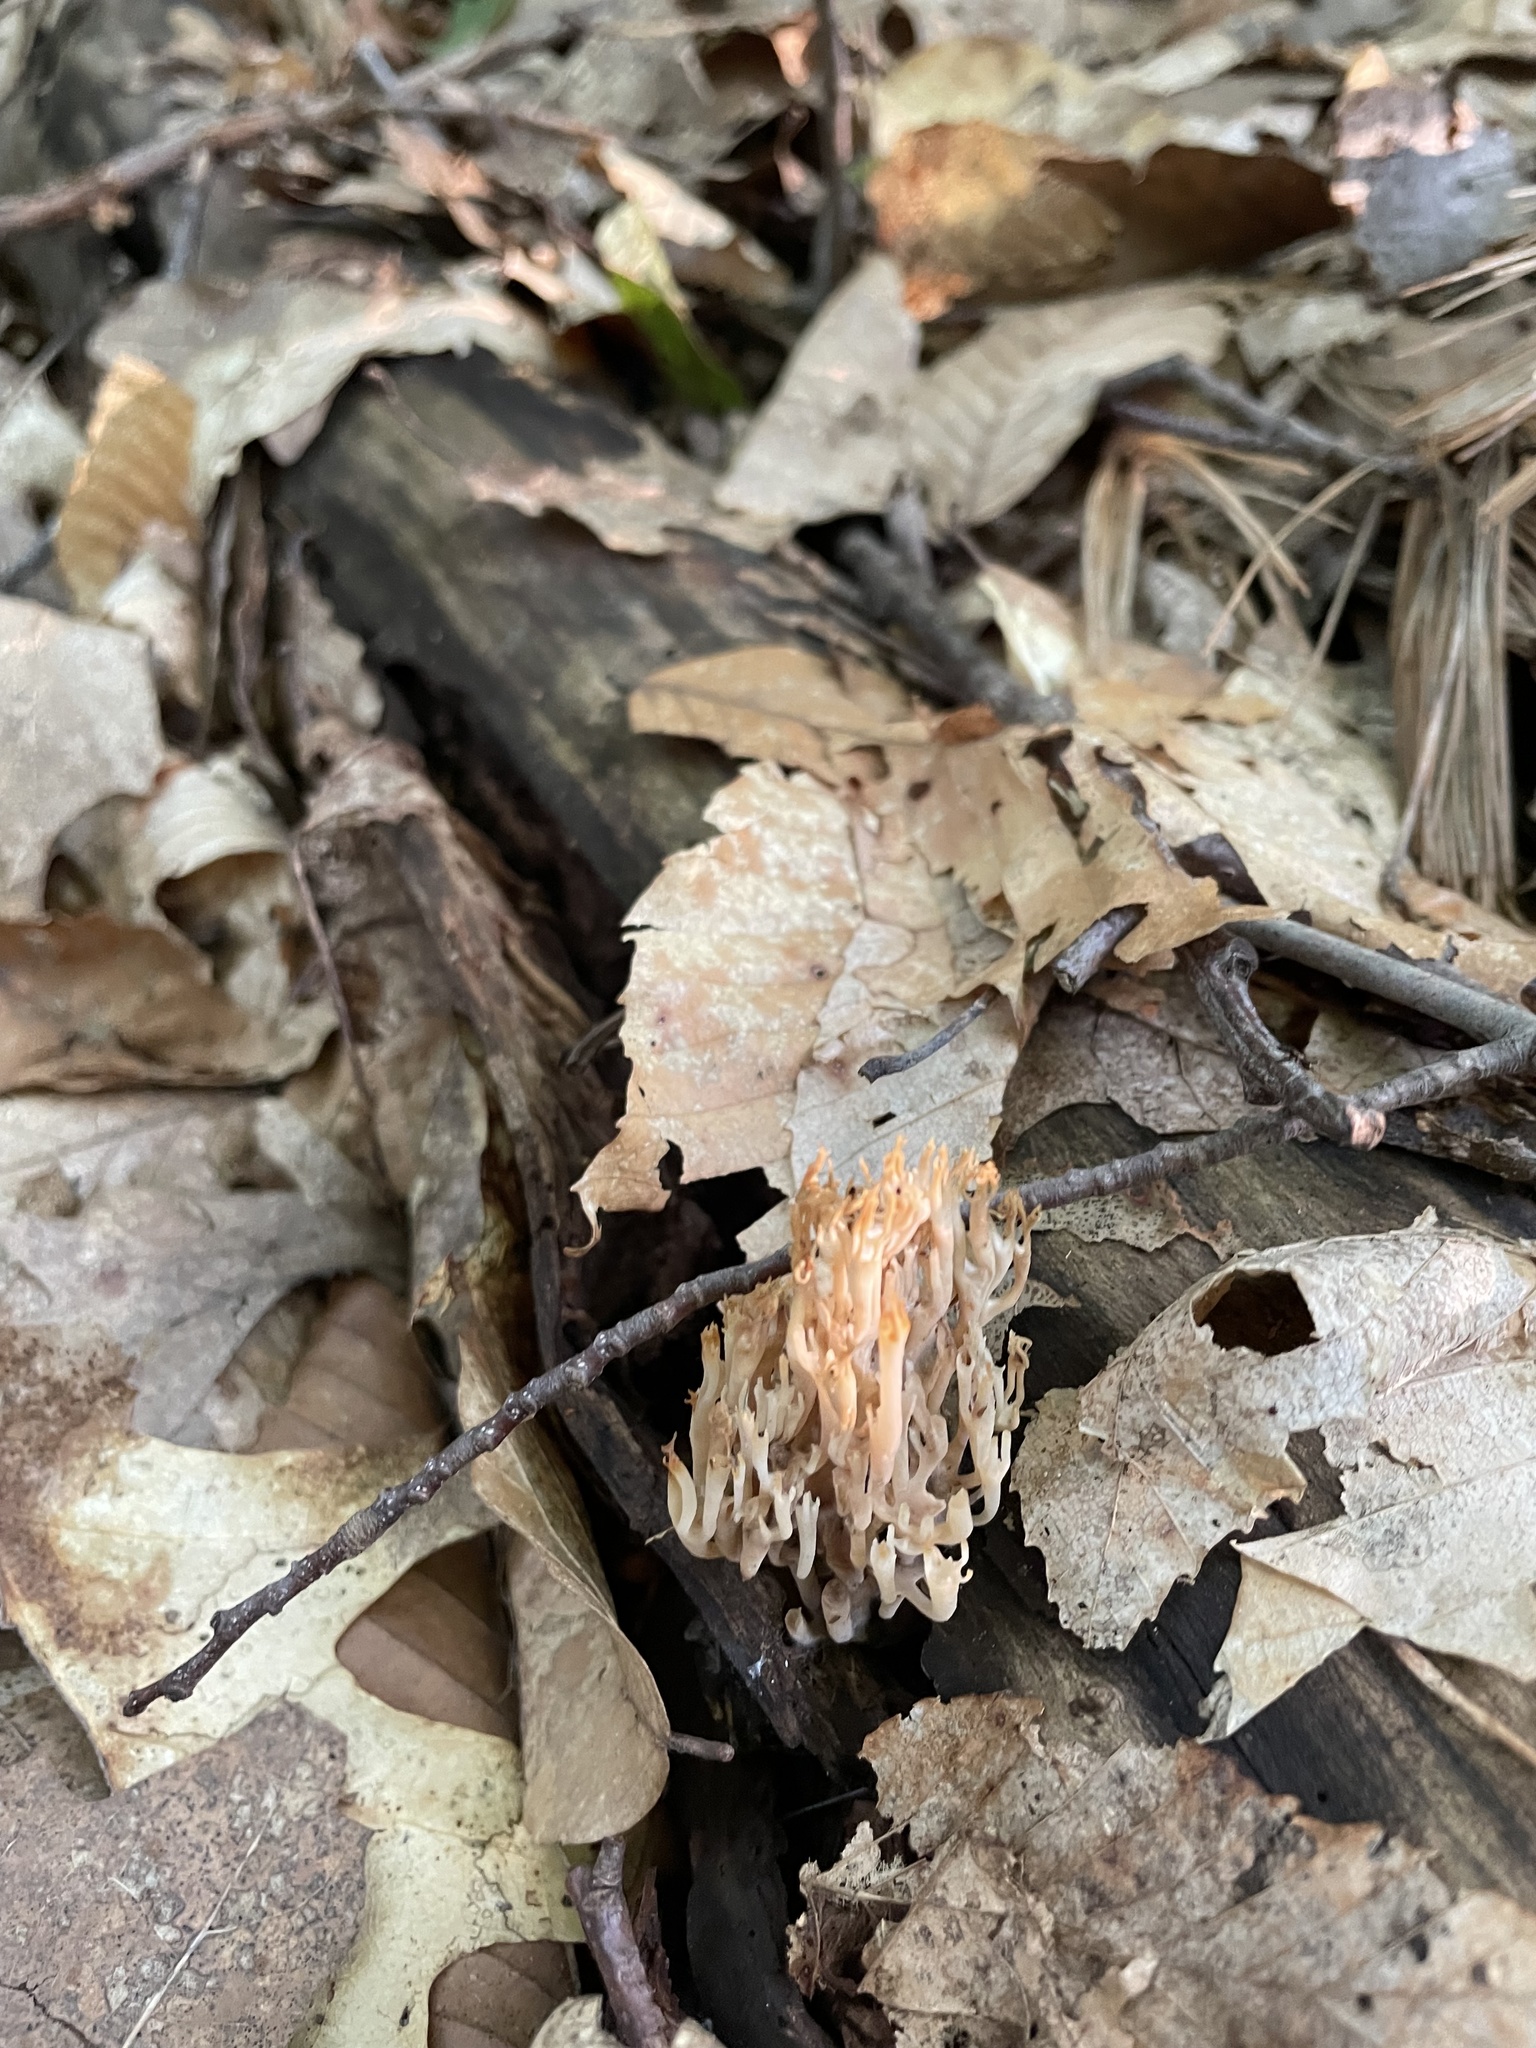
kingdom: Fungi
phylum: Basidiomycota
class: Agaricomycetes
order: Russulales
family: Auriscalpiaceae
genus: Artomyces
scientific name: Artomyces pyxidatus
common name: Crown-tipped coral fungus
